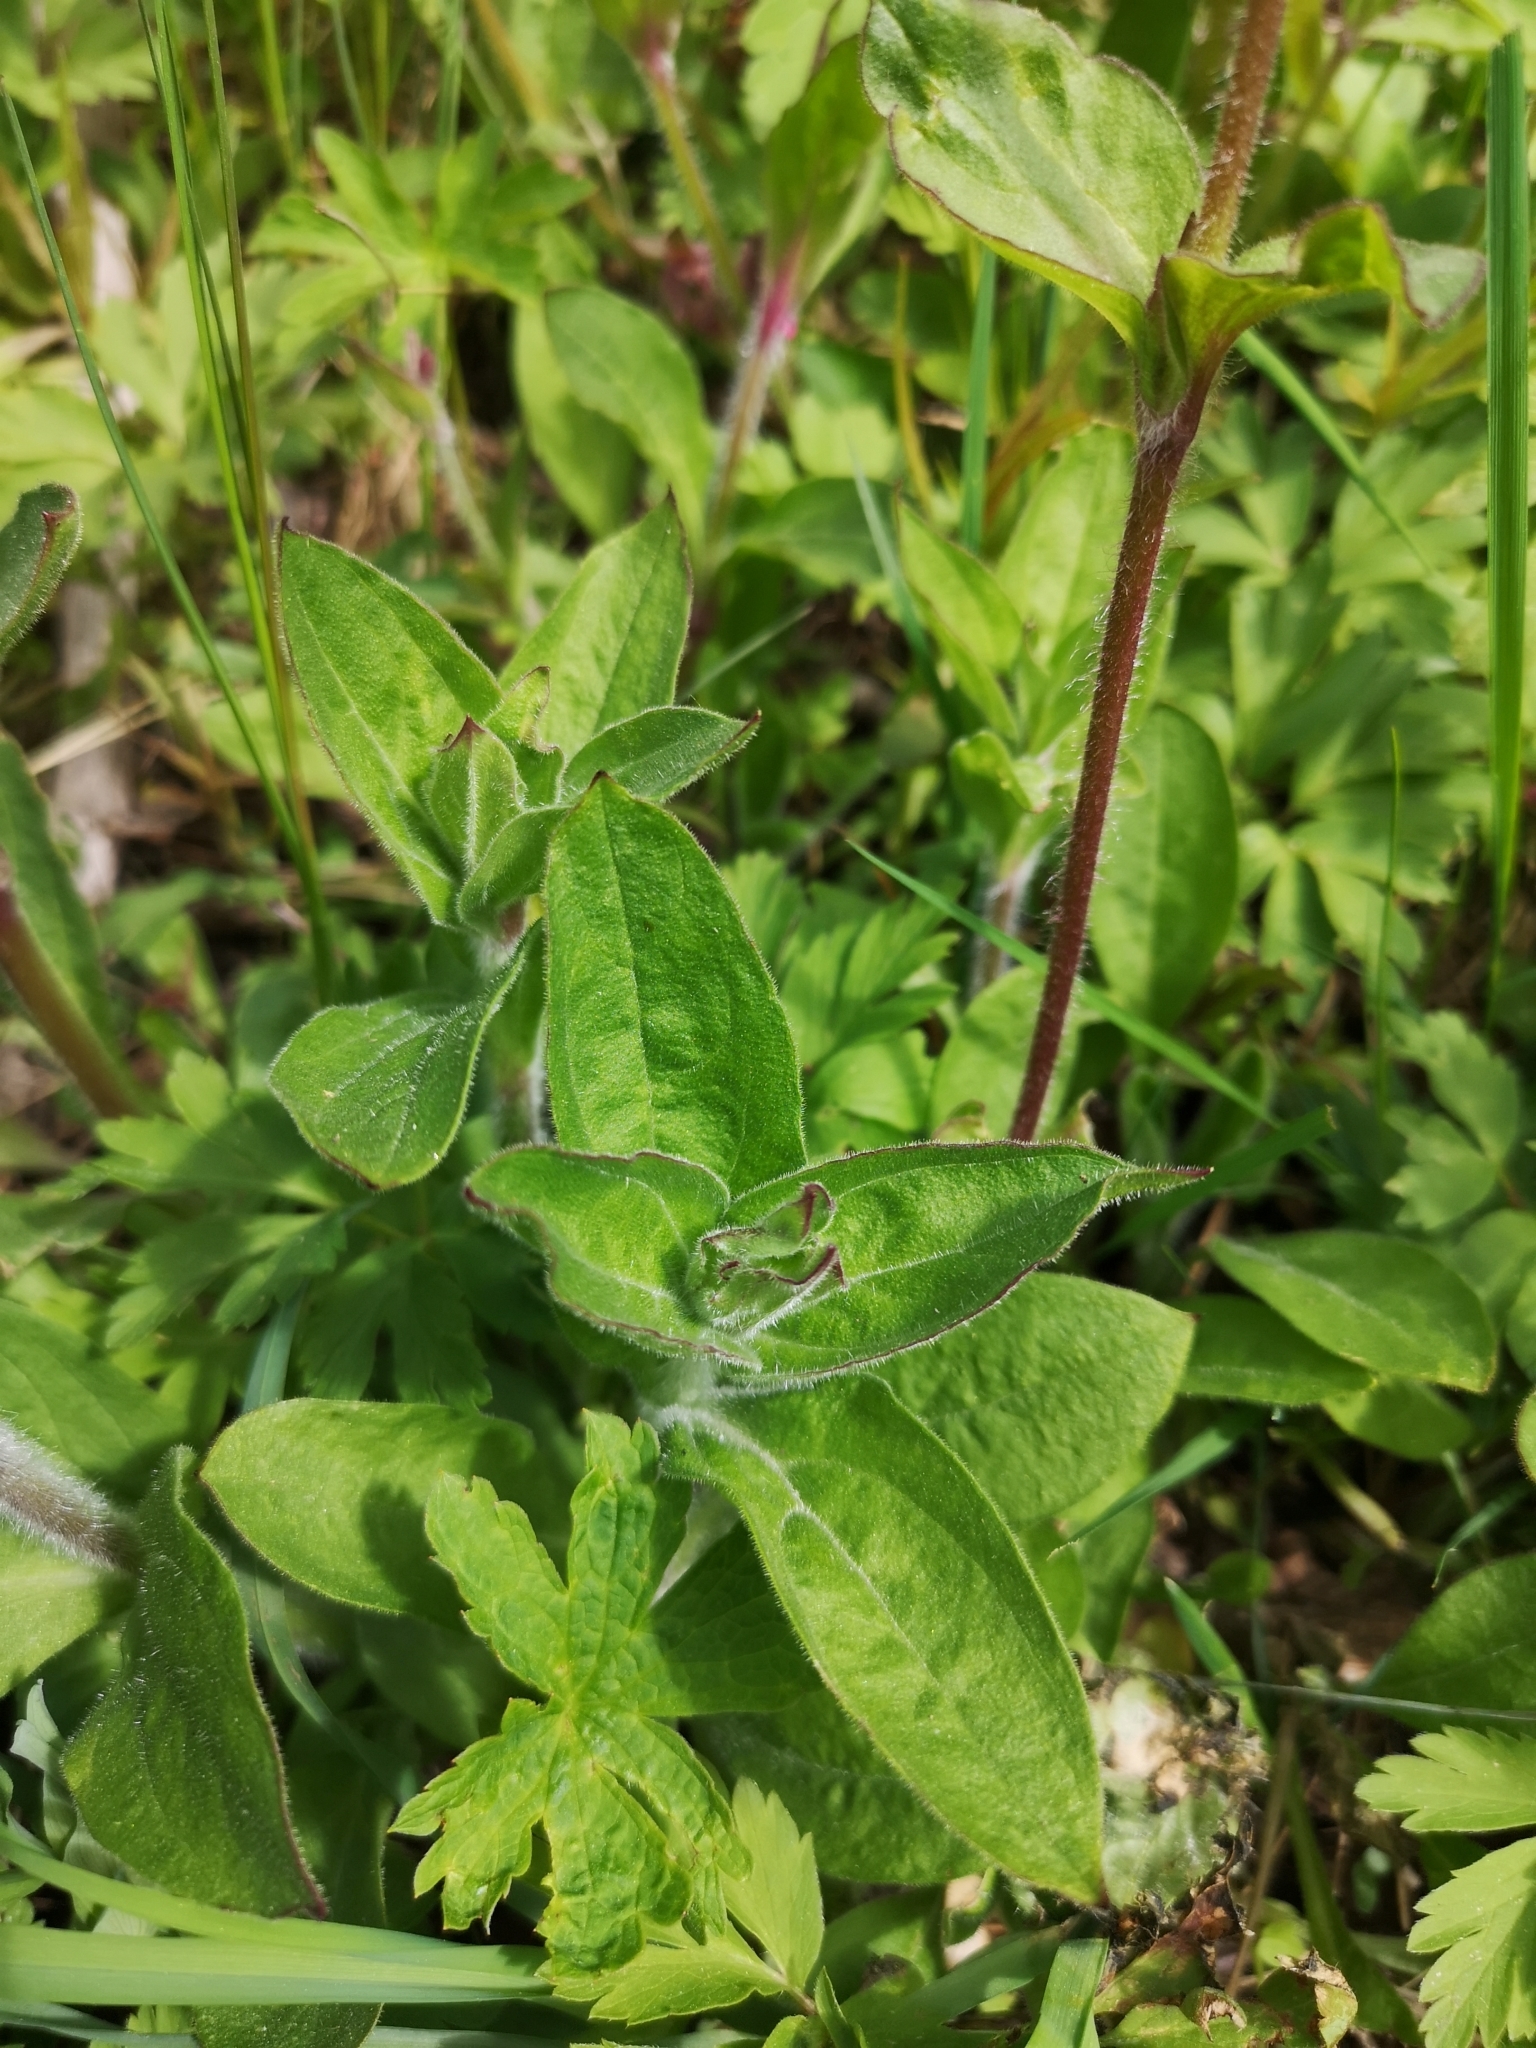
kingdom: Plantae
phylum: Tracheophyta
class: Magnoliopsida
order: Caryophyllales
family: Caryophyllaceae
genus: Silene
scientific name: Silene dioica
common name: Red campion
